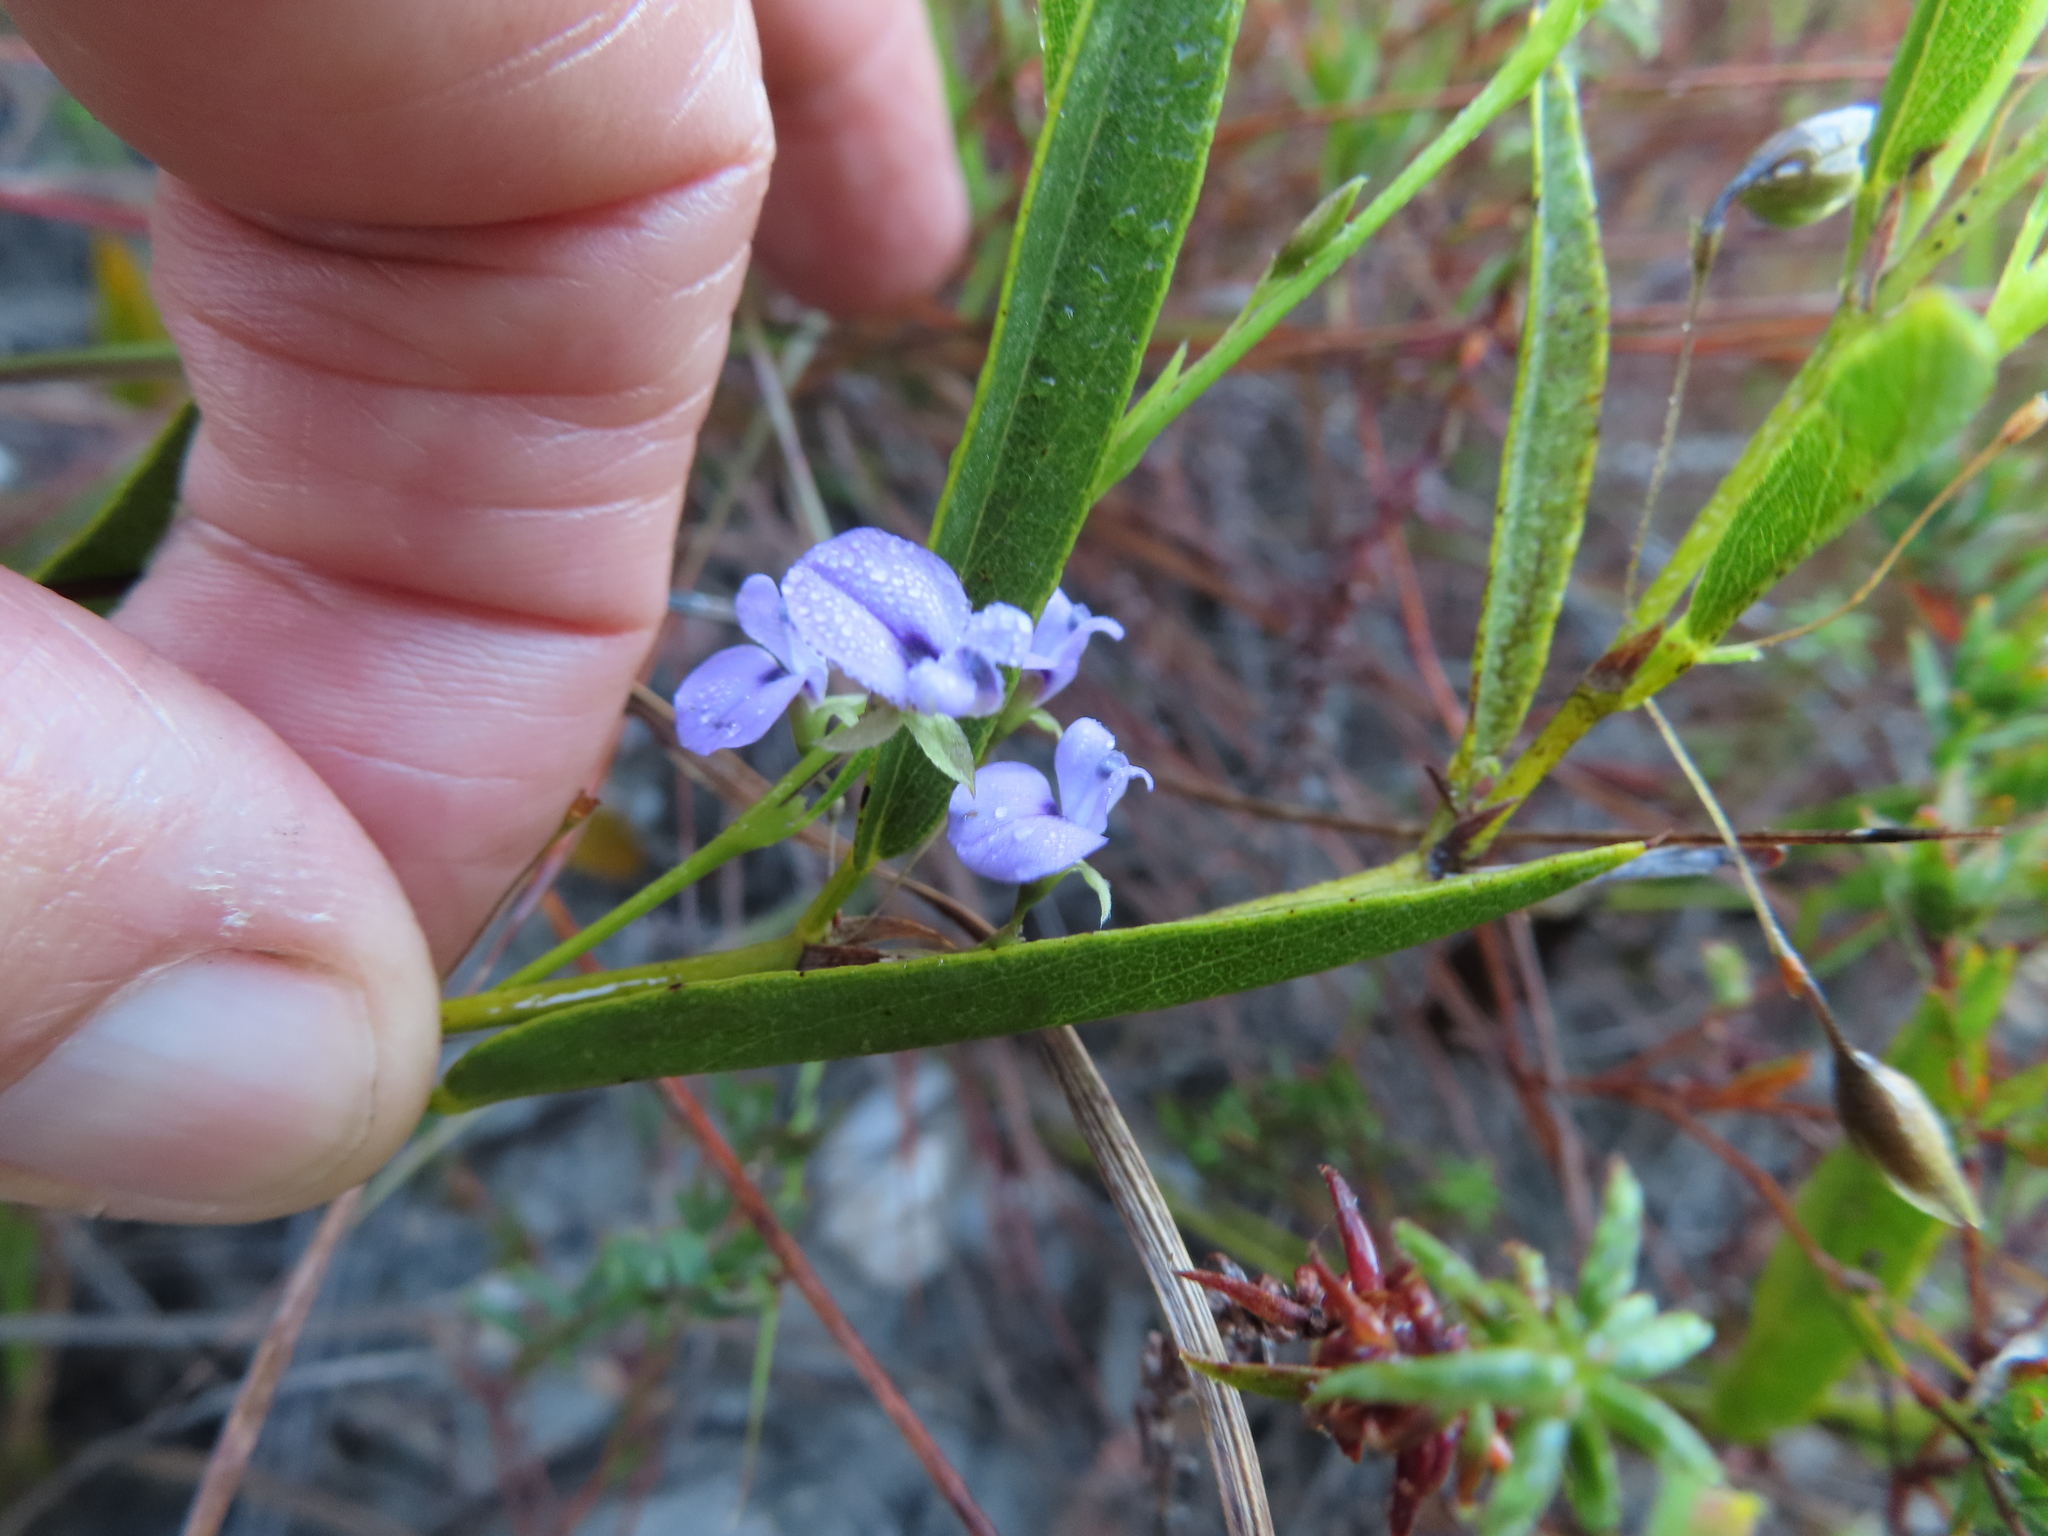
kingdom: Plantae
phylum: Tracheophyta
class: Magnoliopsida
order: Fabales
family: Fabaceae
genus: Psoralea
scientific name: Psoralea laxa
